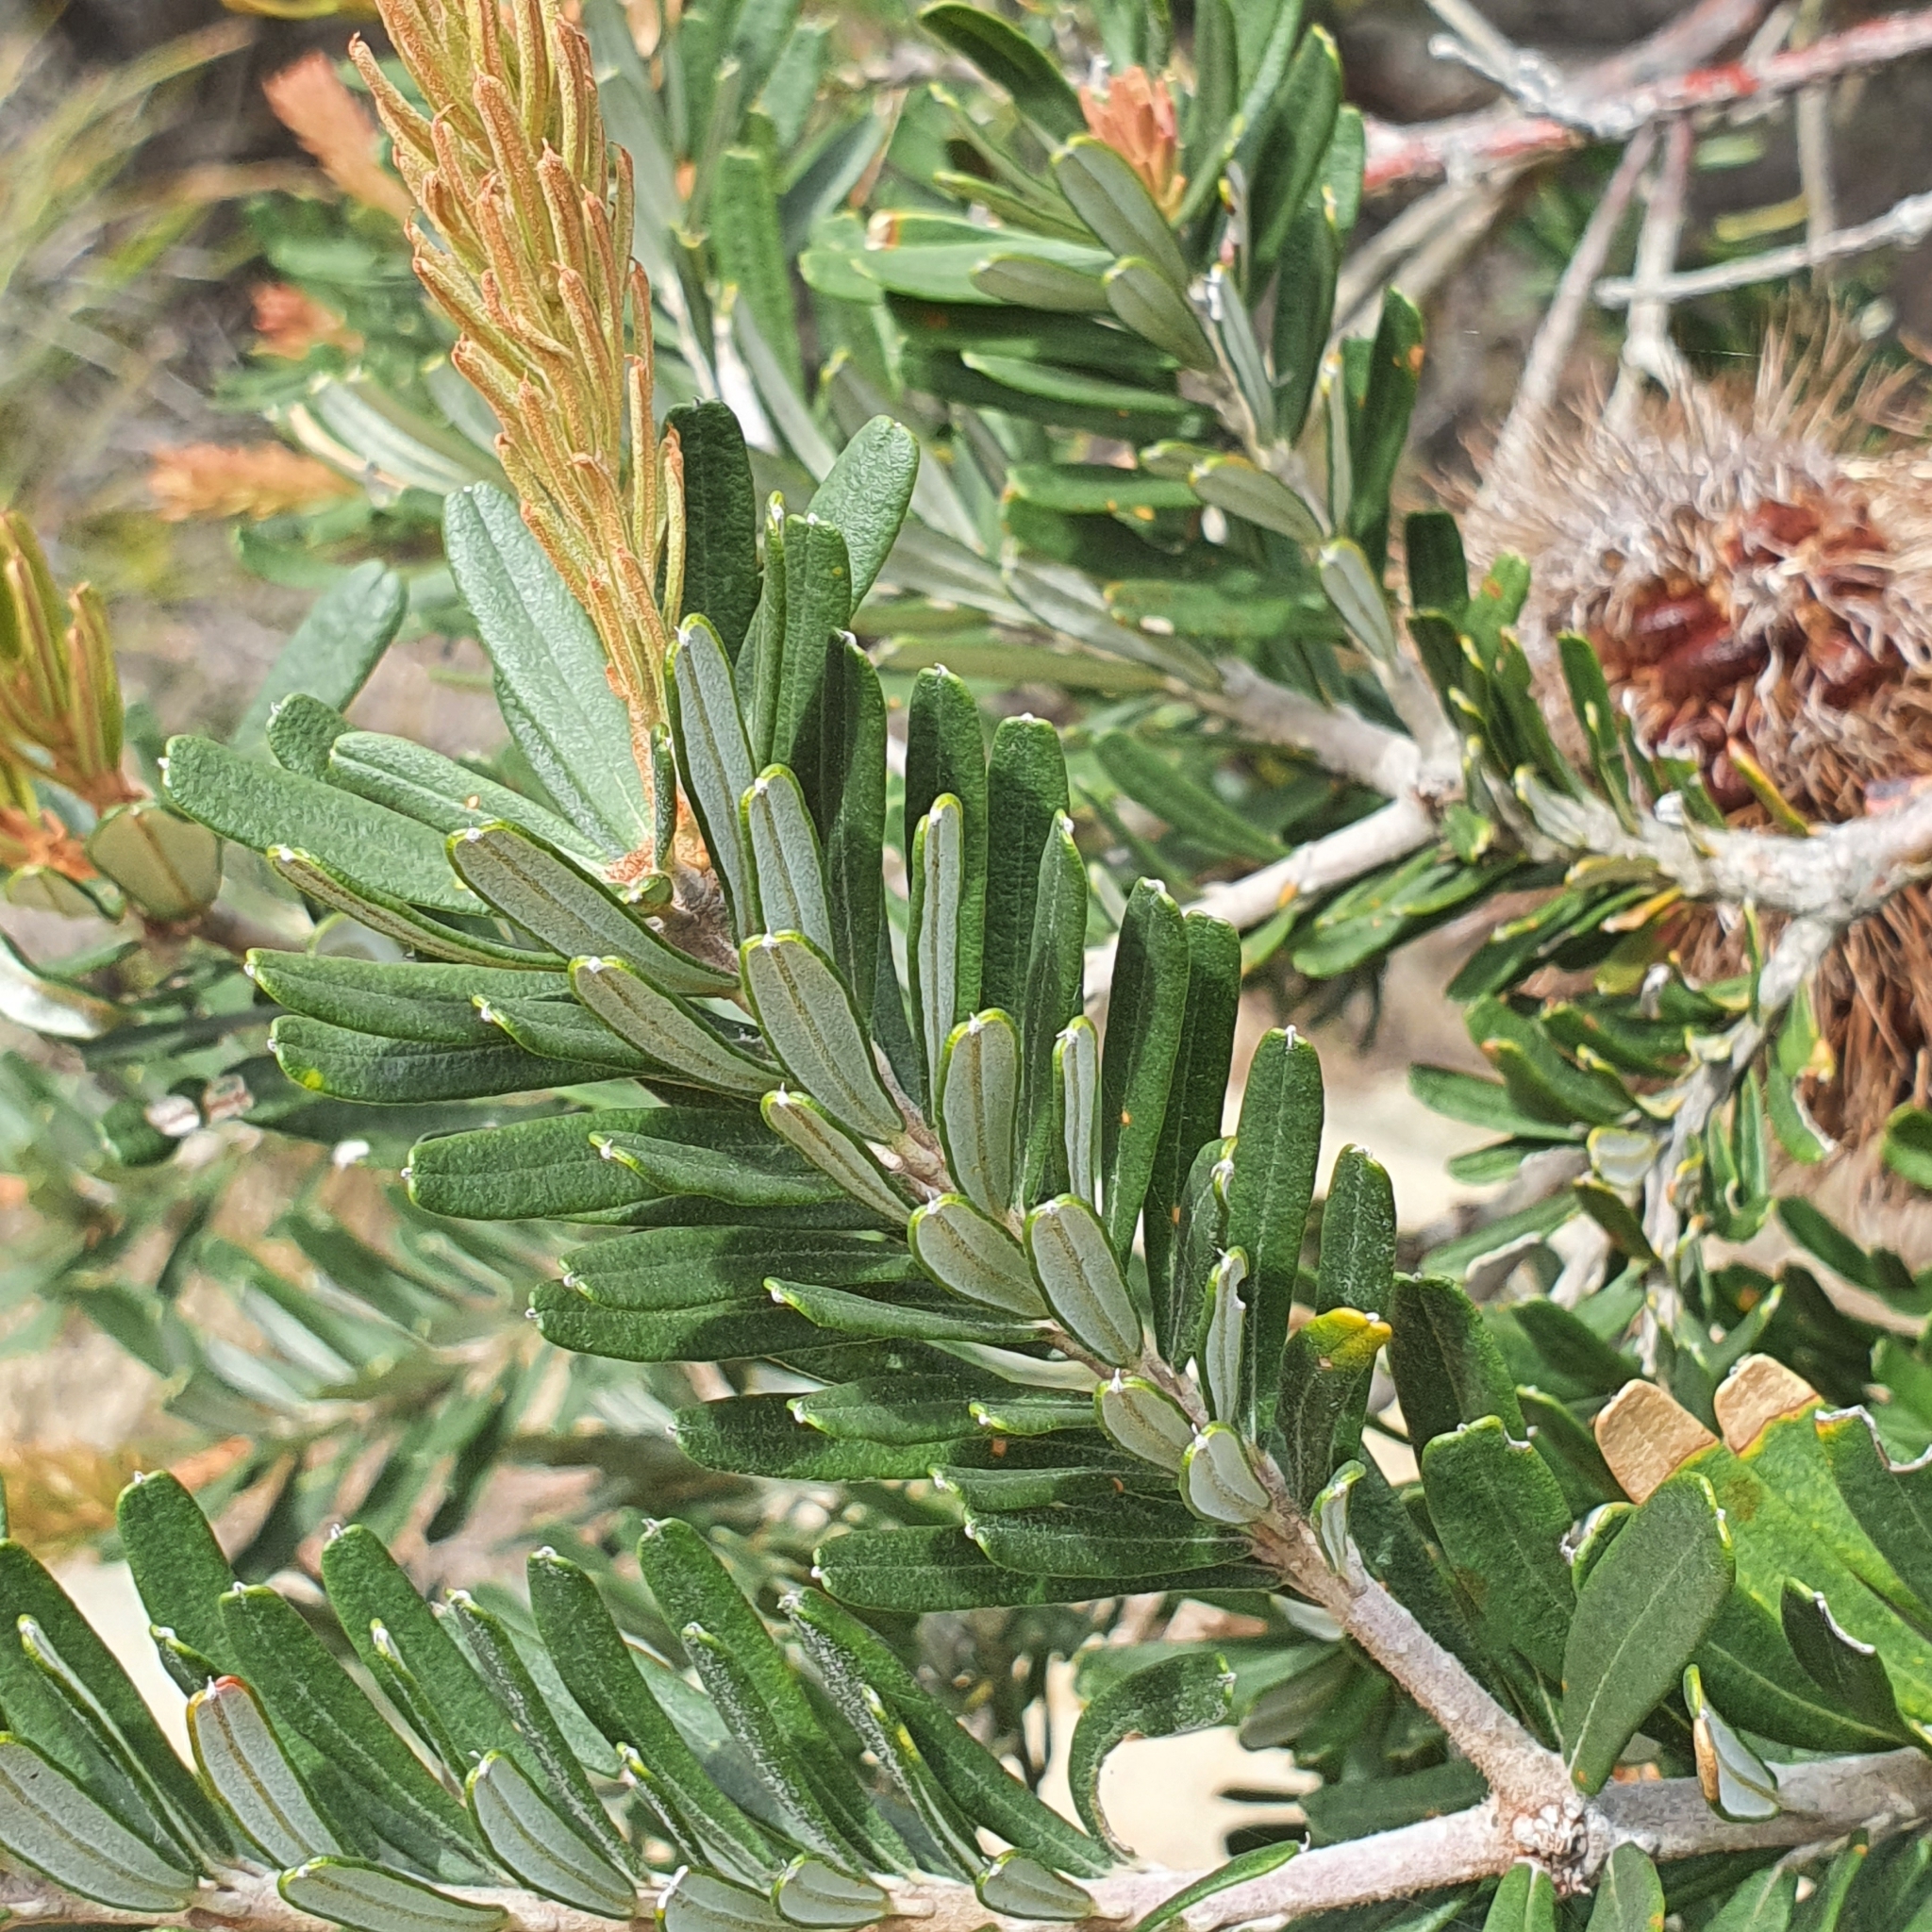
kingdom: Plantae
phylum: Tracheophyta
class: Magnoliopsida
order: Proteales
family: Proteaceae
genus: Banksia
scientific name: Banksia marginata
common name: Silver banksia
